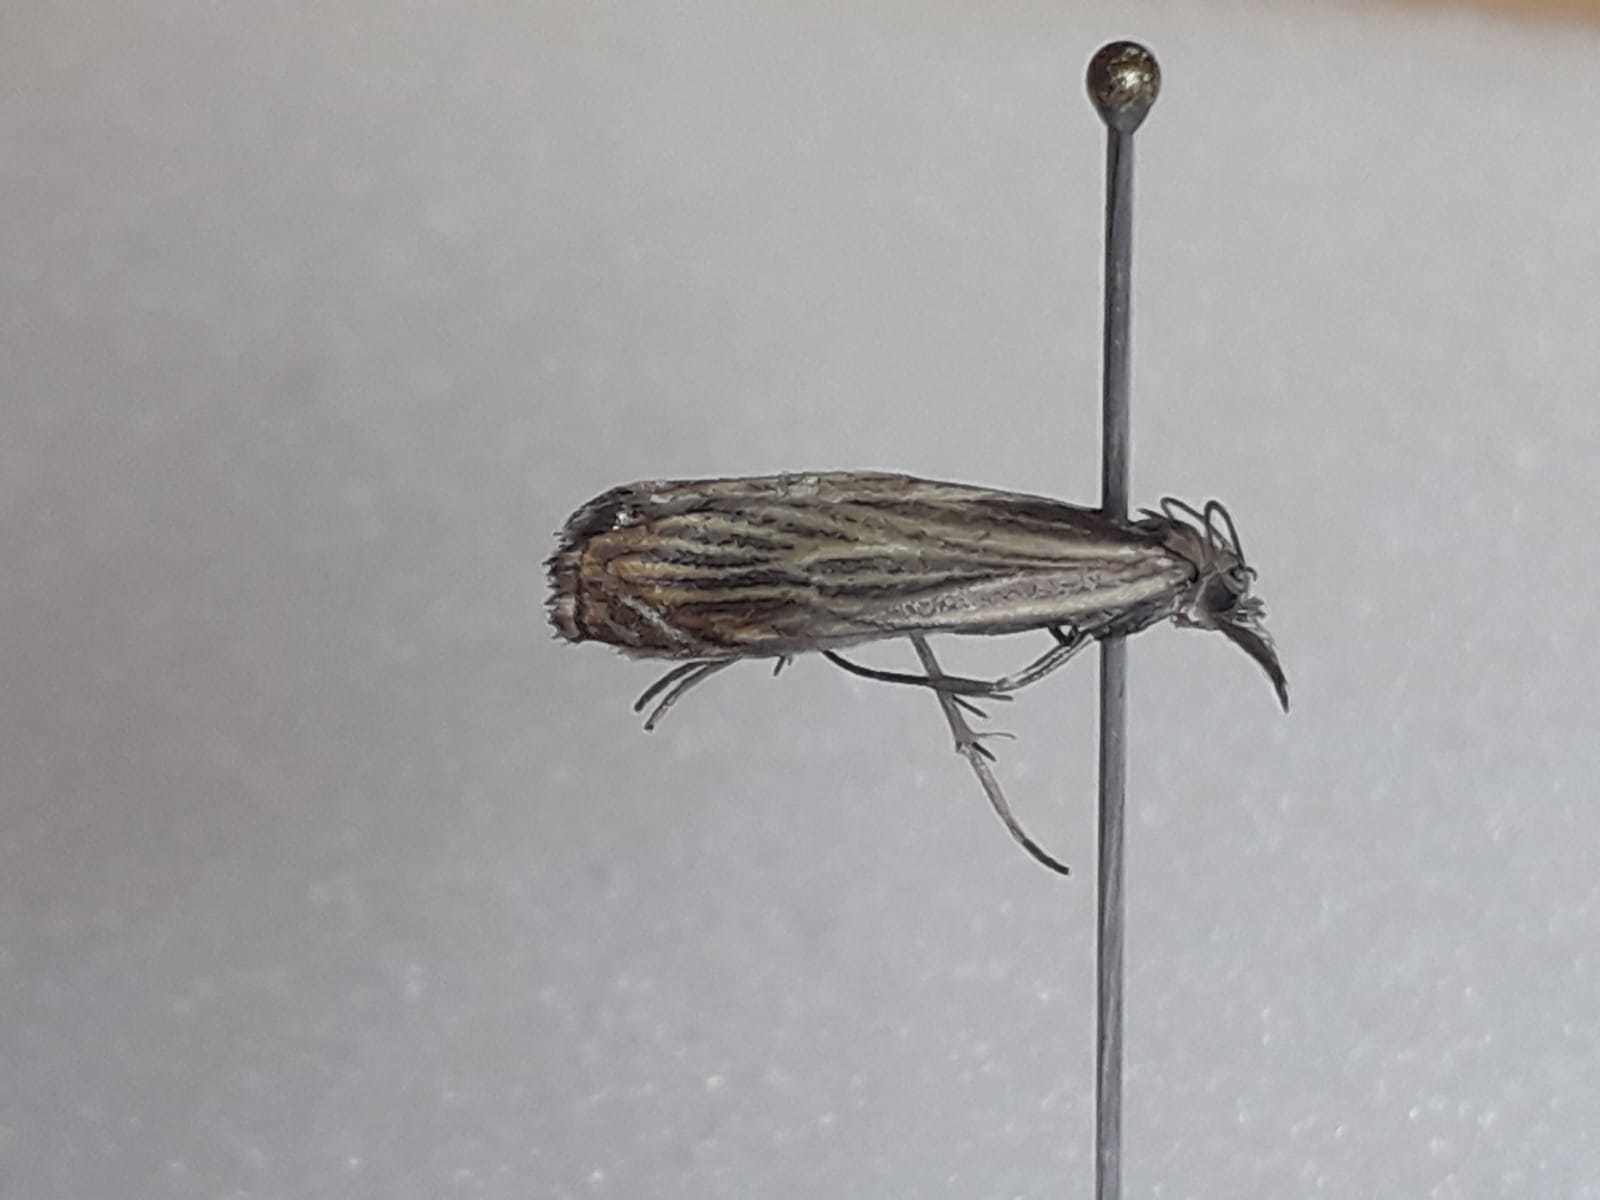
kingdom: Animalia
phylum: Arthropoda
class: Insecta
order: Lepidoptera
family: Crambidae
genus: Chrysoteuchia
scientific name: Chrysoteuchia culmella
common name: Garden grass-veneer
